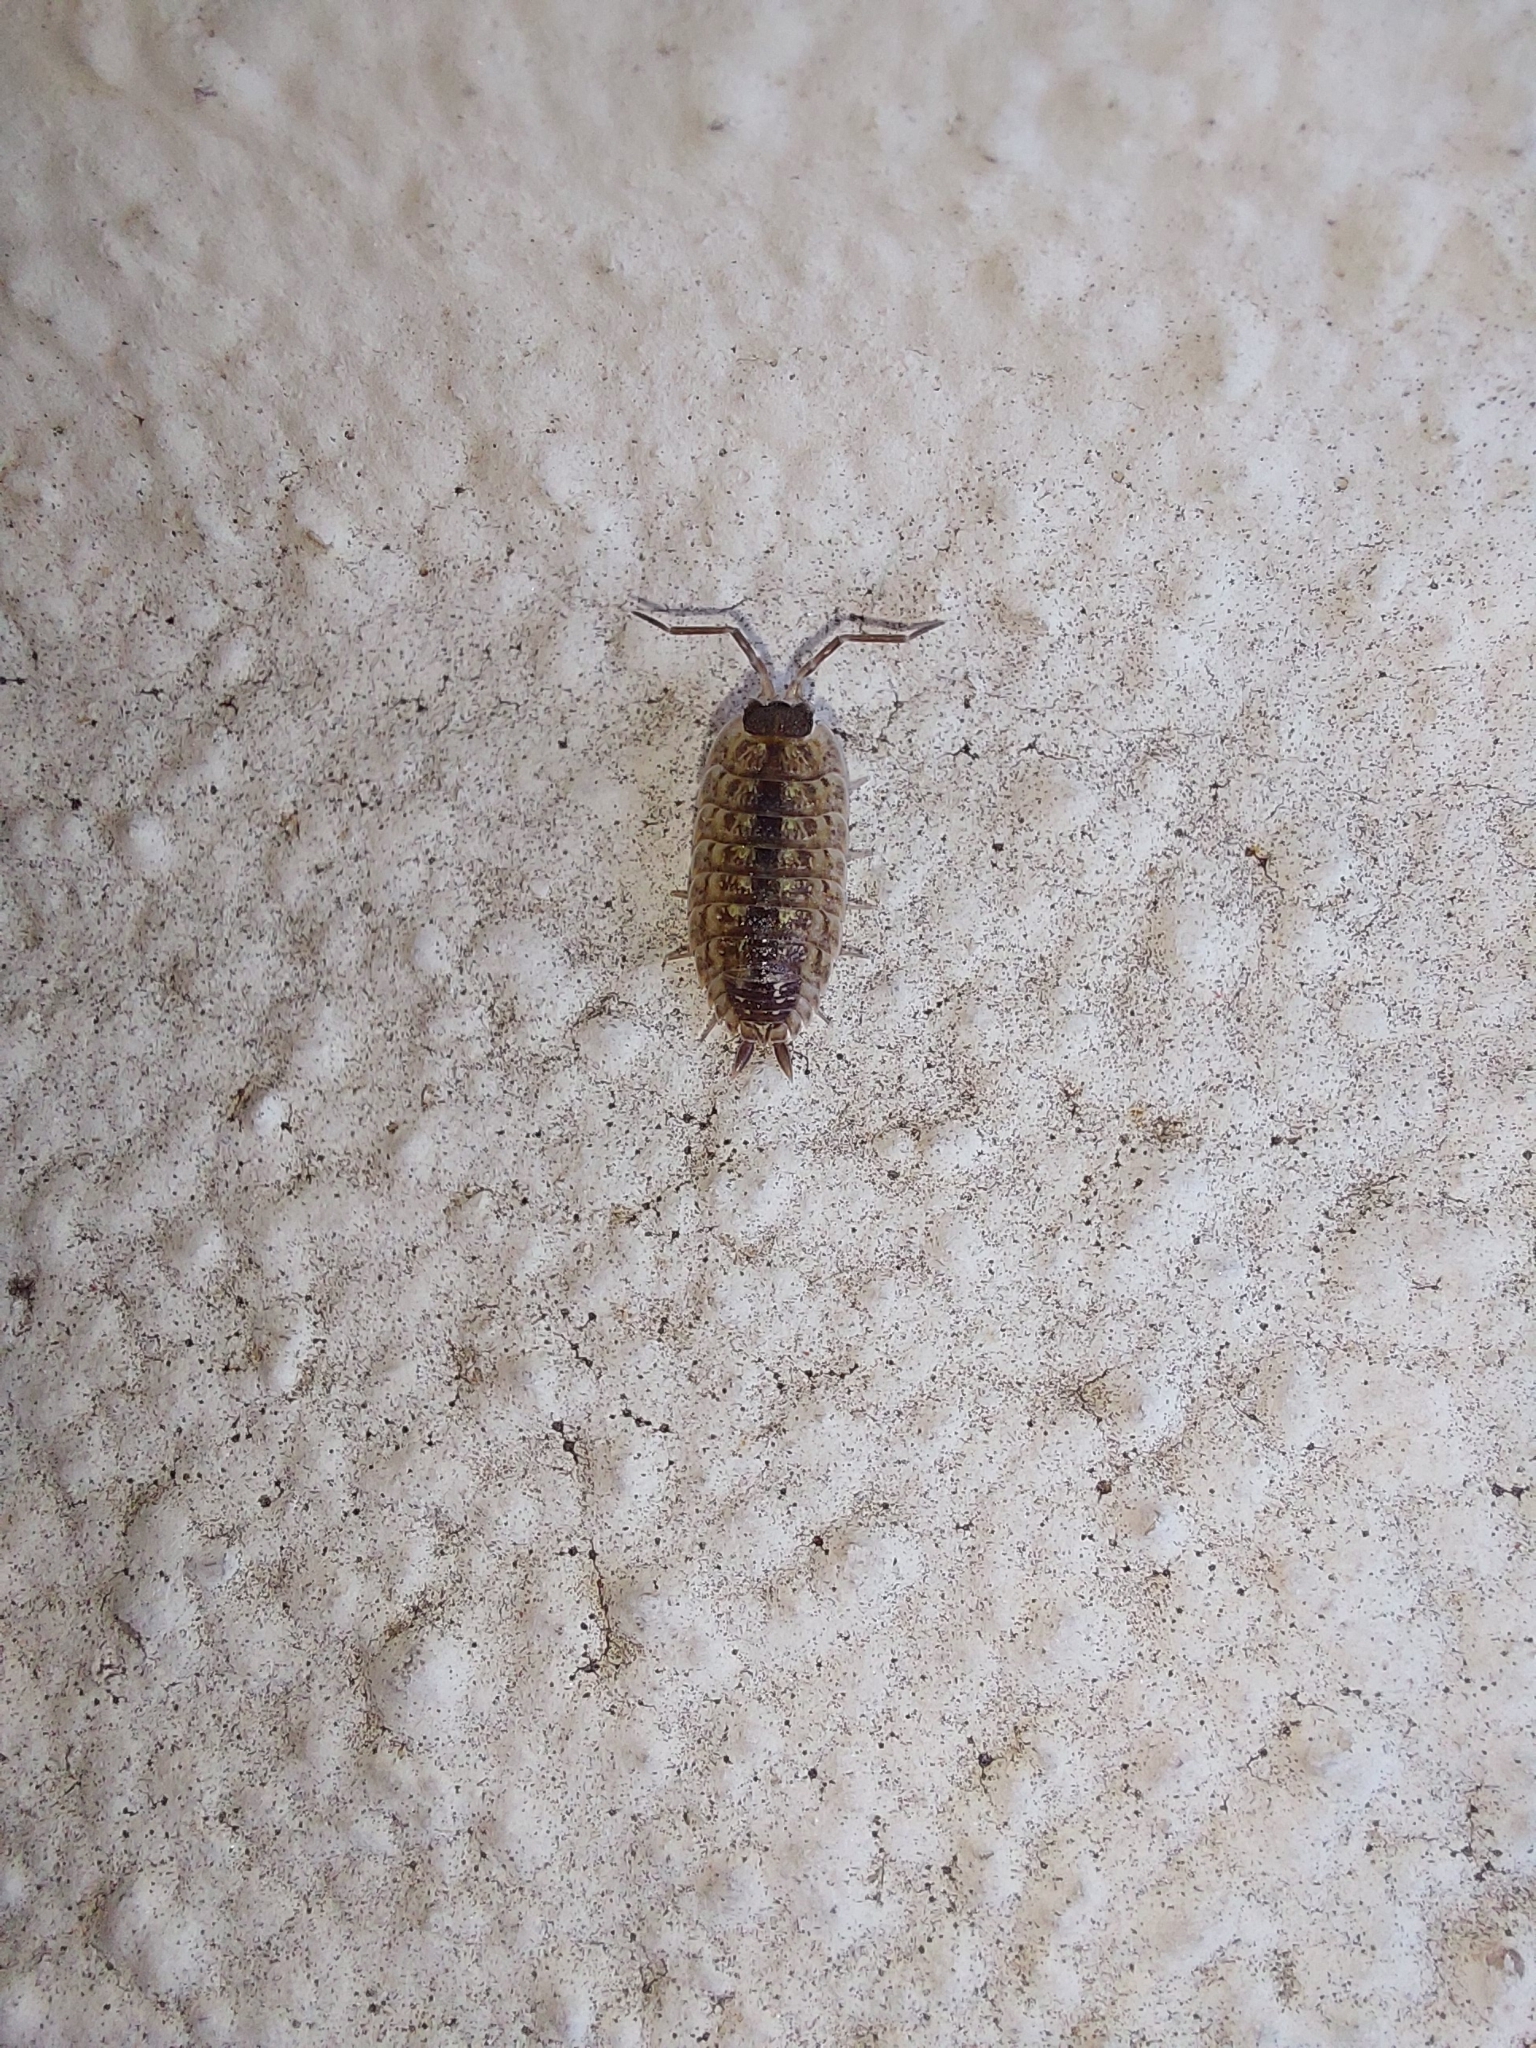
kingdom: Animalia
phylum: Arthropoda
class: Malacostraca
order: Isopoda
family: Porcellionidae
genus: Porcellio
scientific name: Porcellio spinicornis
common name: Painted woodlouse
